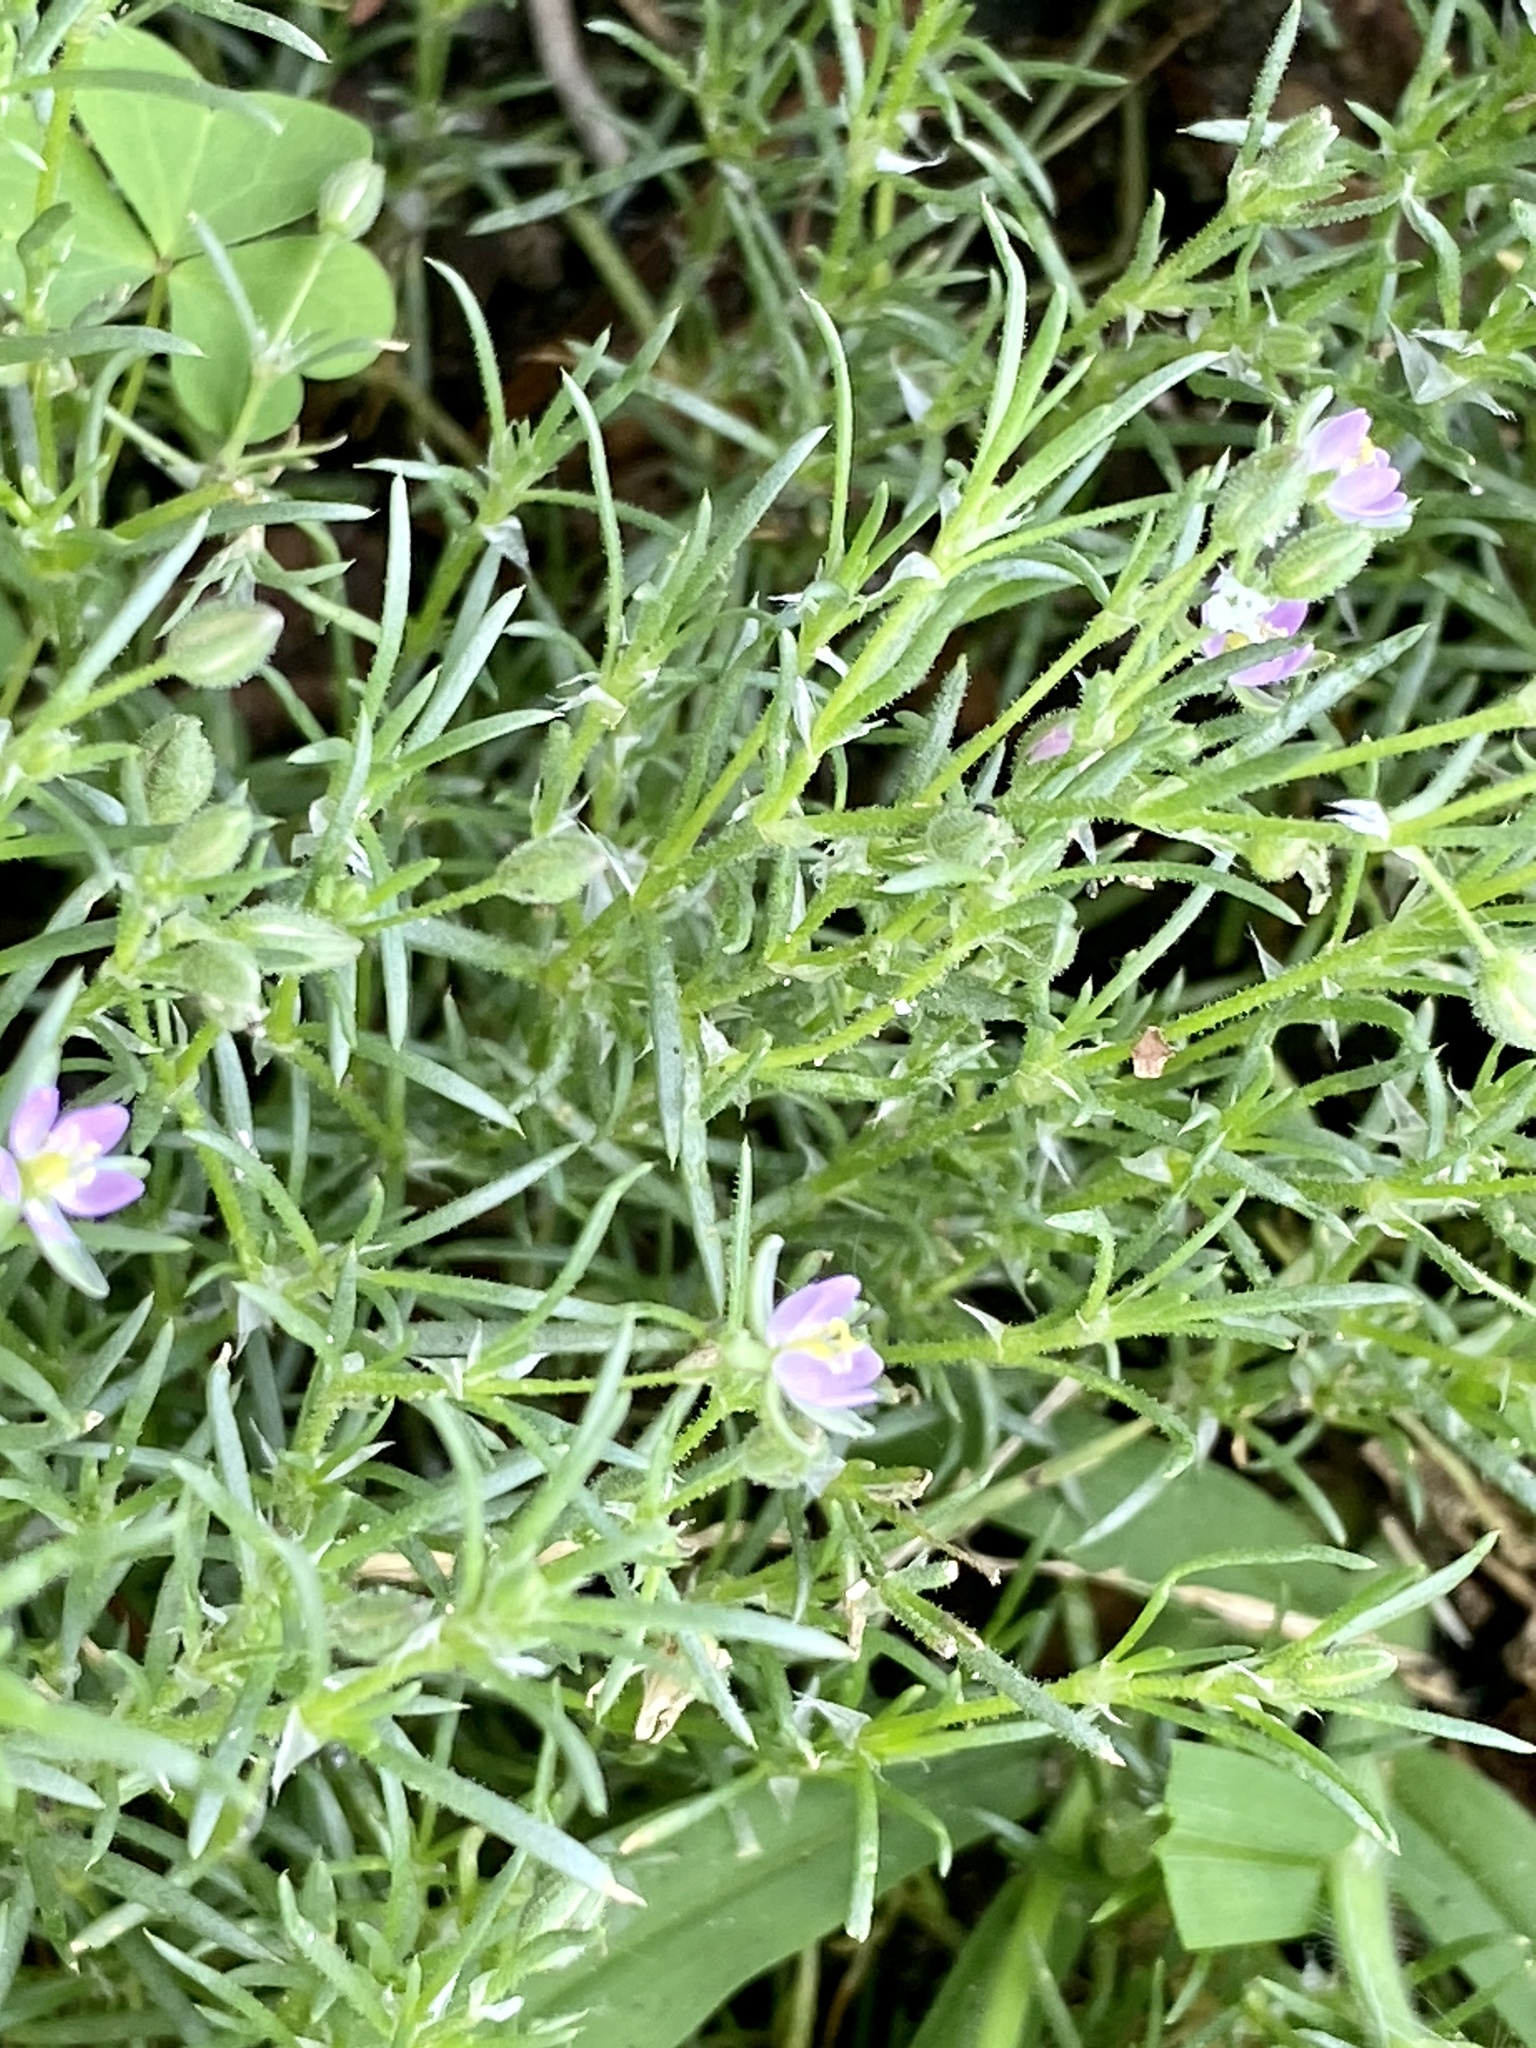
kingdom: Plantae
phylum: Tracheophyta
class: Magnoliopsida
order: Caryophyllales
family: Caryophyllaceae
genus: Spergularia
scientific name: Spergularia rubra
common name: Red sand-spurrey
